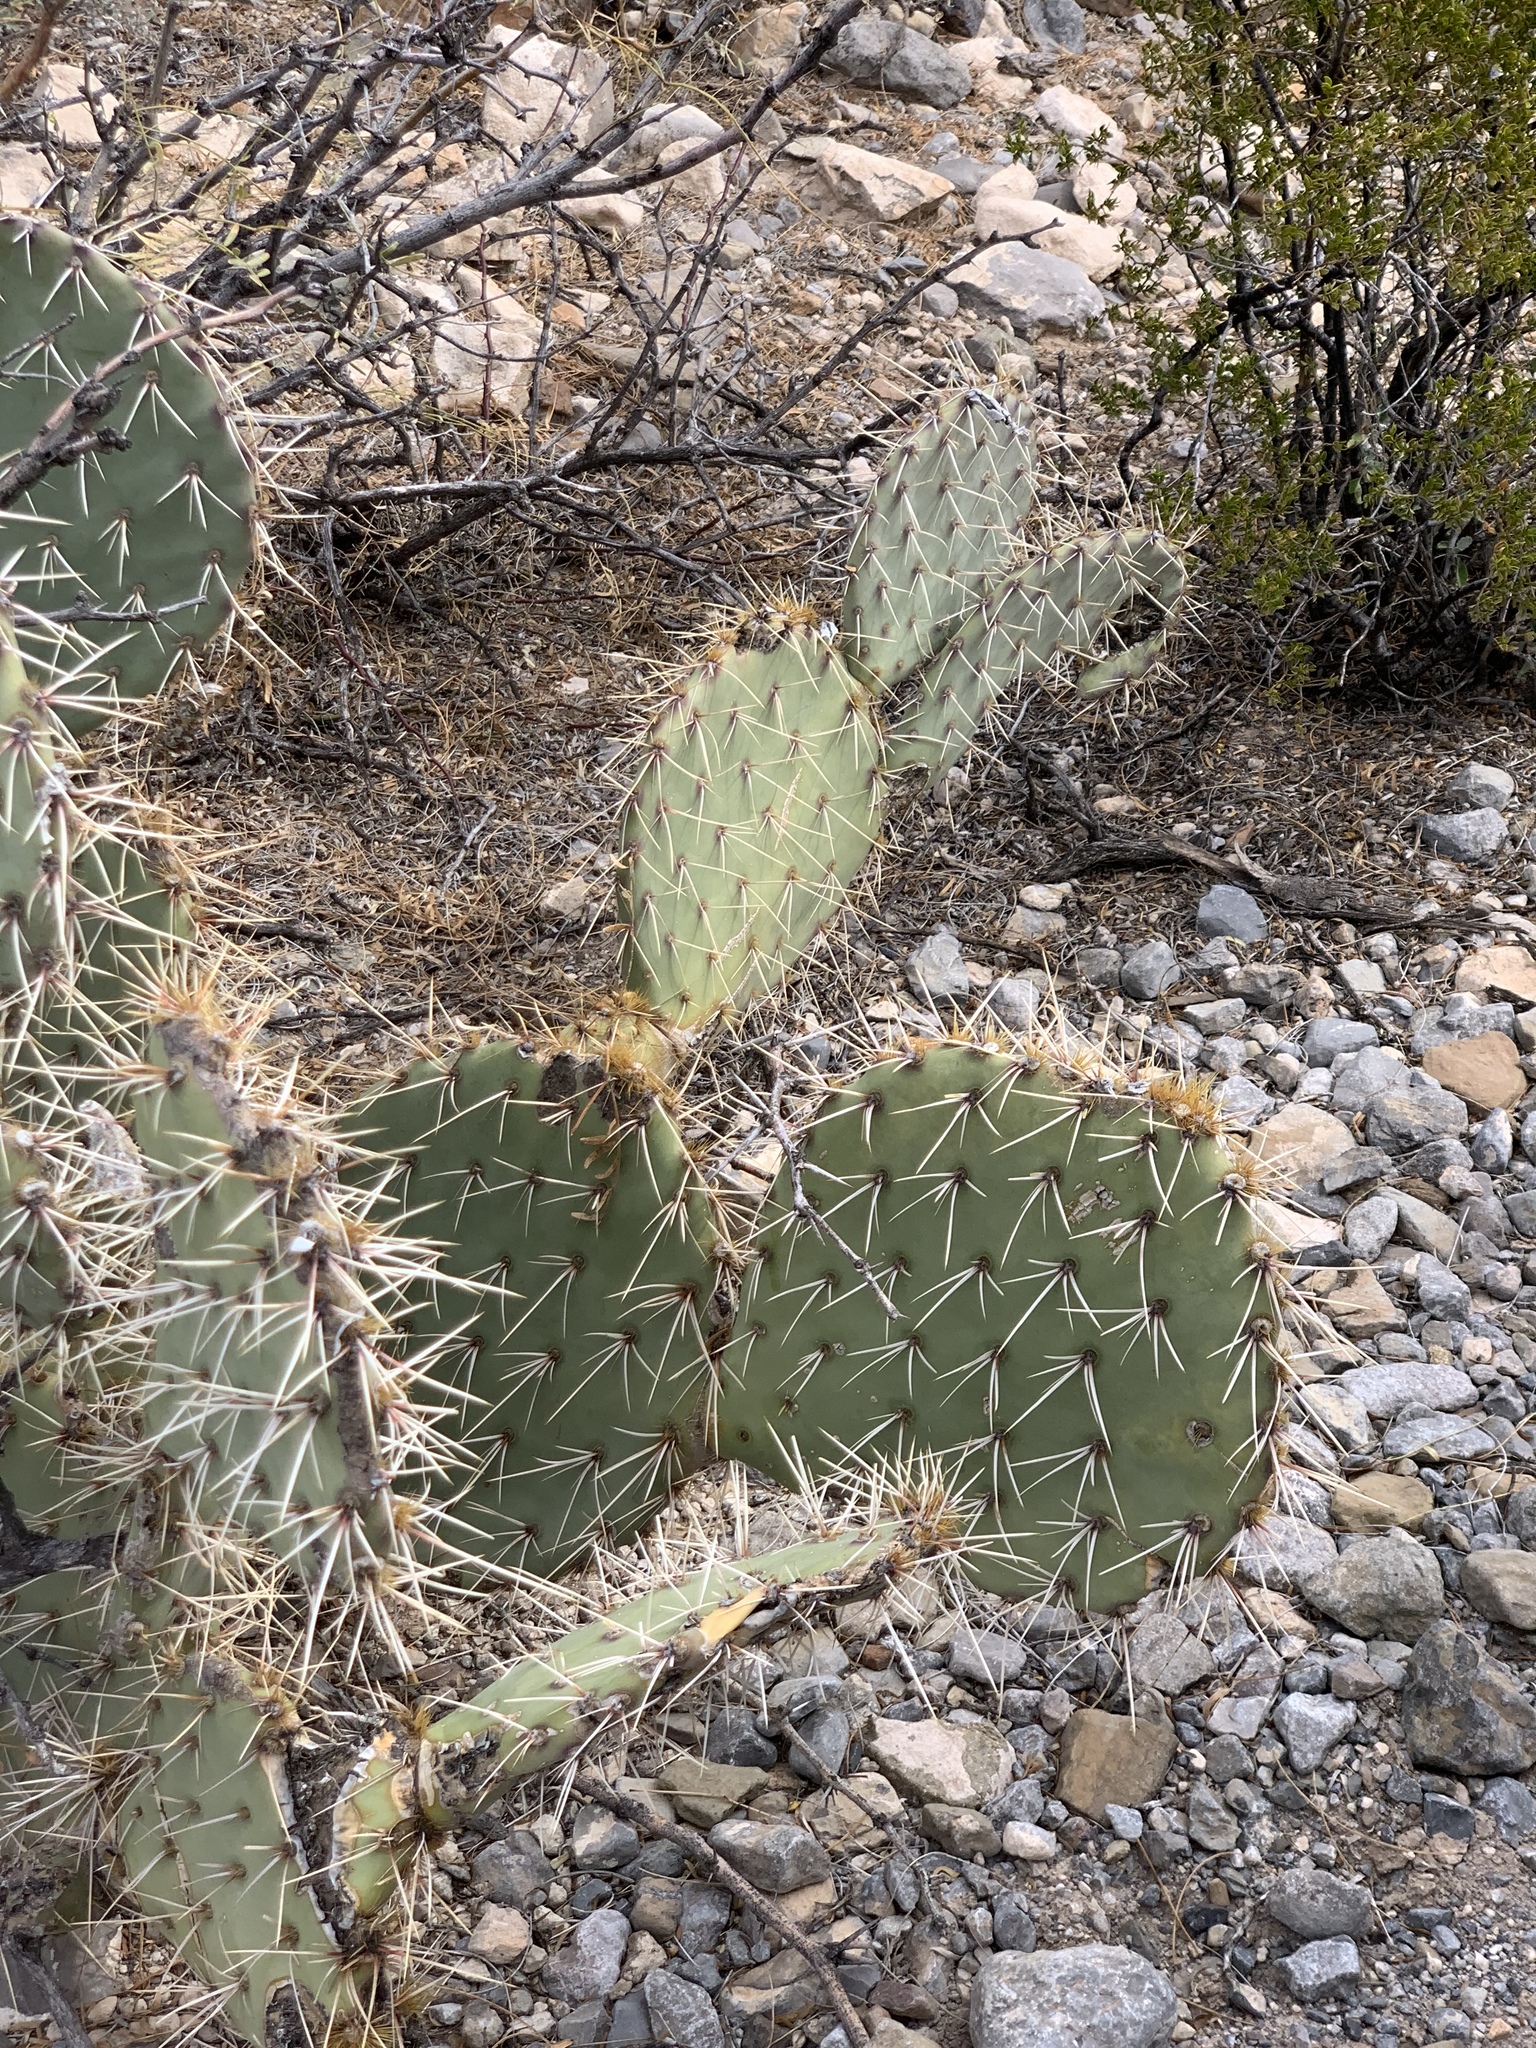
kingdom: Plantae
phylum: Tracheophyta
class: Magnoliopsida
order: Caryophyllales
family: Cactaceae
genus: Opuntia
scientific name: Opuntia engelmannii
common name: Cactus-apple
